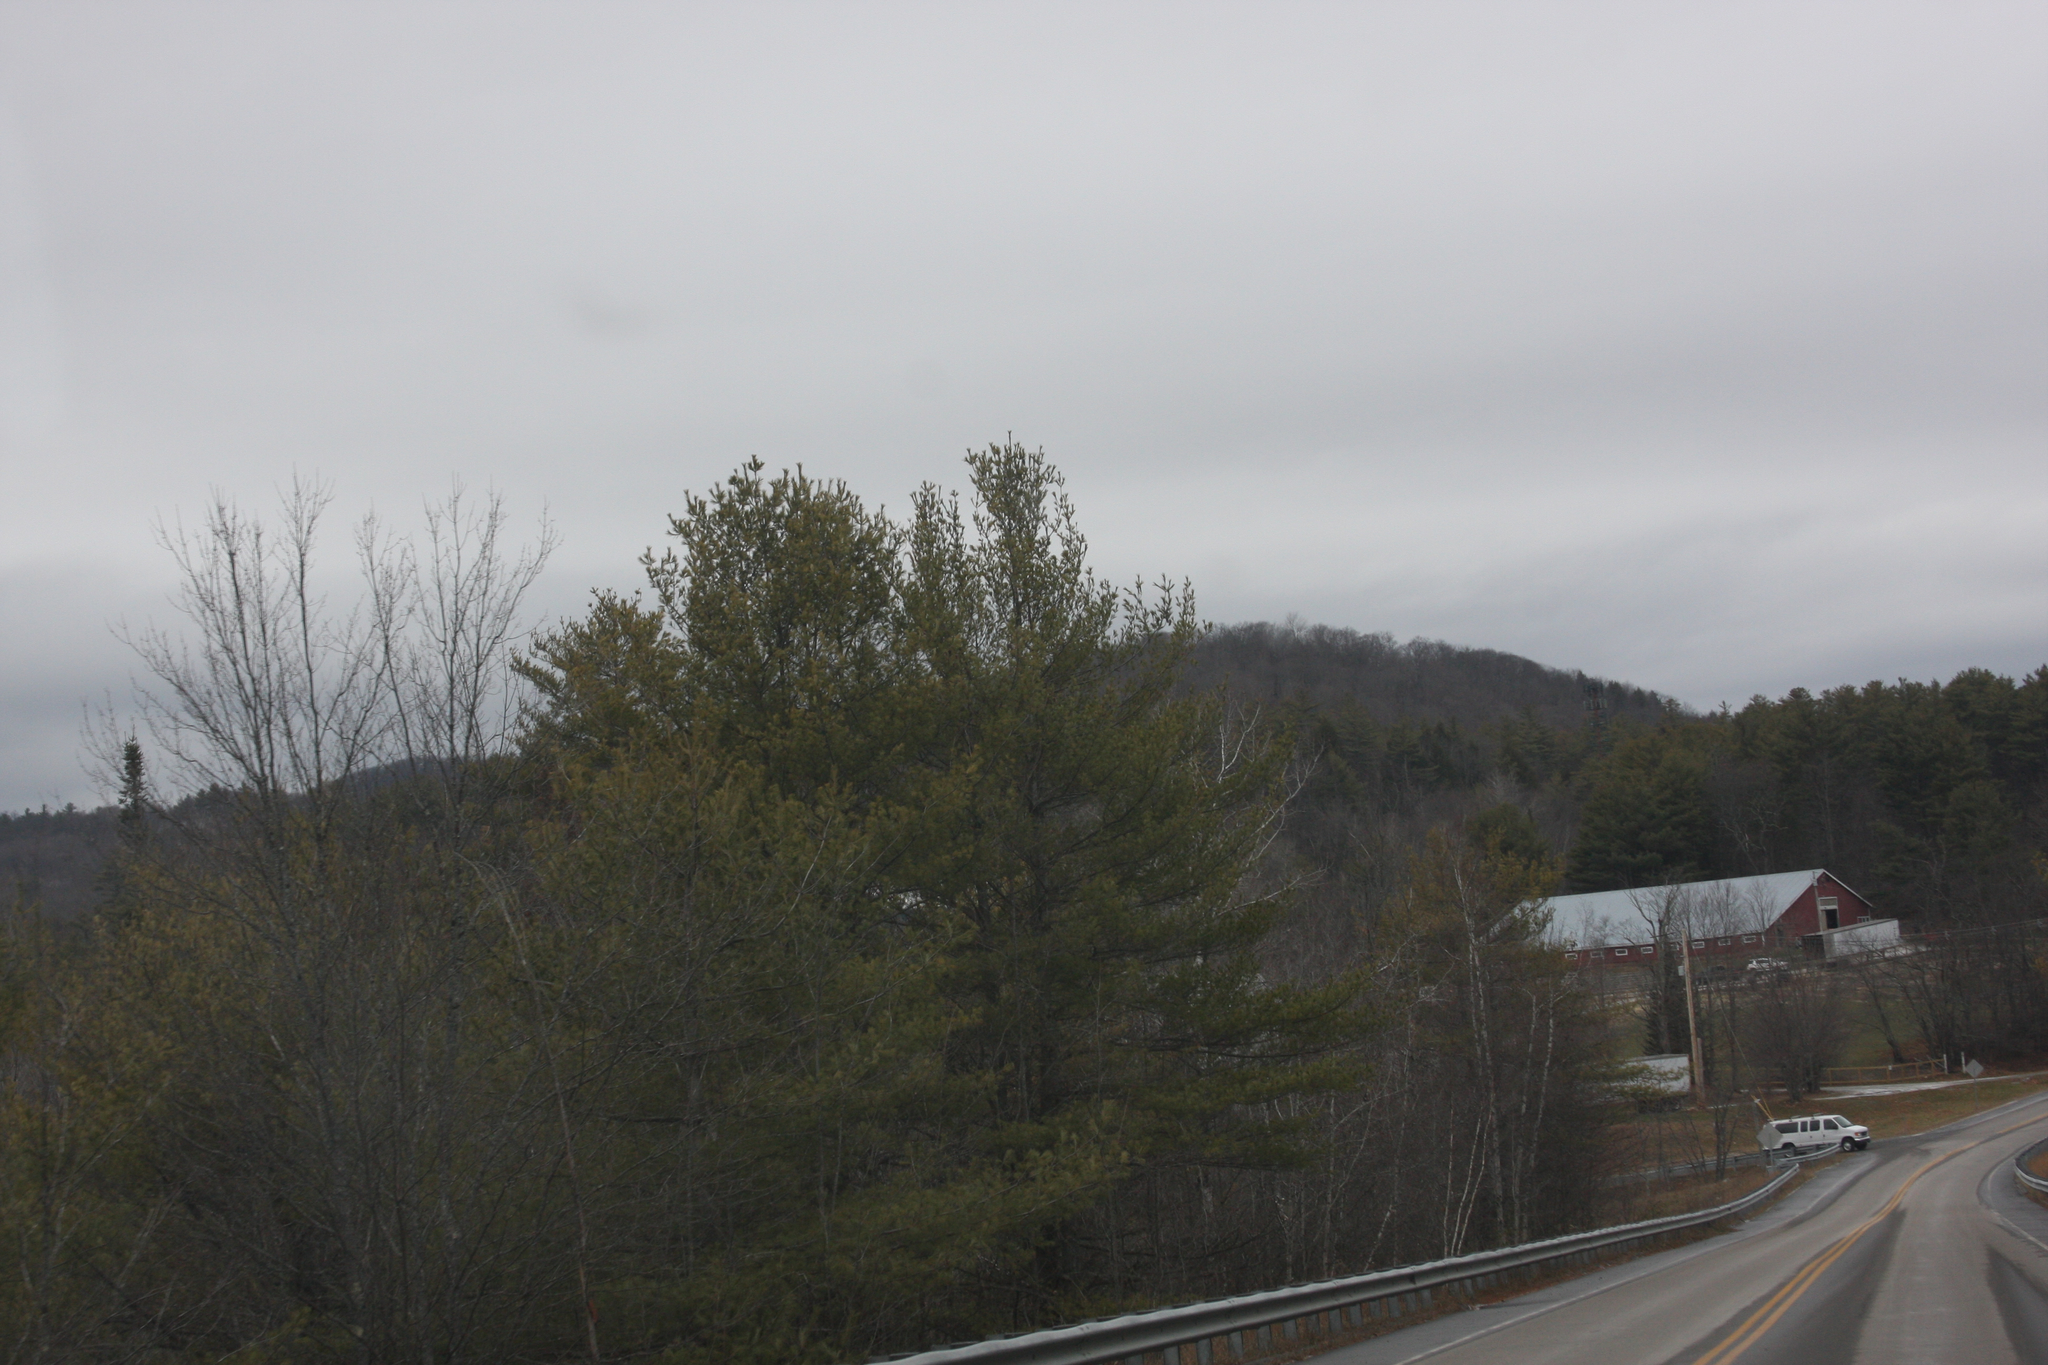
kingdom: Plantae
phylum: Tracheophyta
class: Pinopsida
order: Pinales
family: Pinaceae
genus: Pinus
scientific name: Pinus strobus
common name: Weymouth pine
